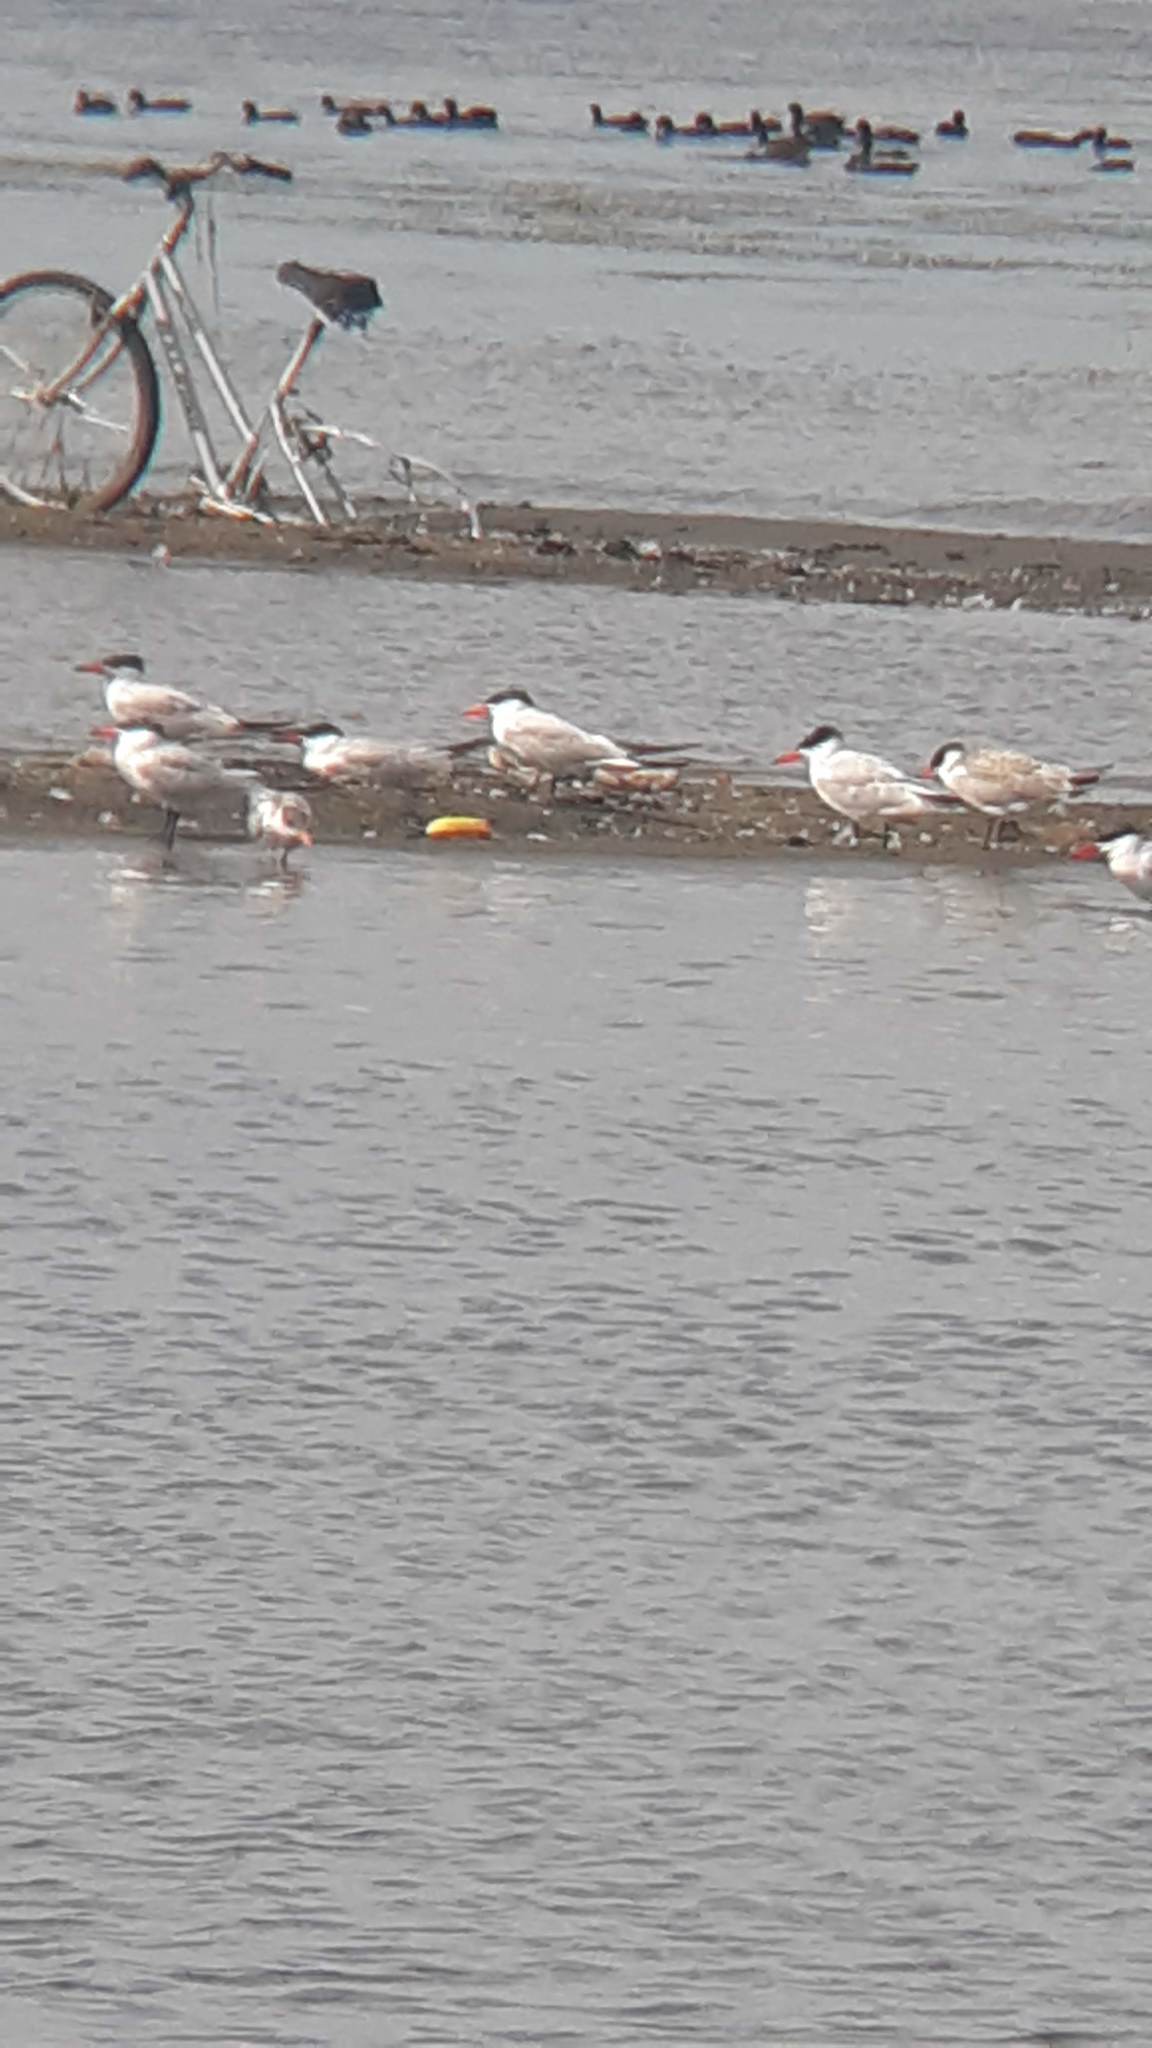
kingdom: Animalia
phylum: Chordata
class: Aves
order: Charadriiformes
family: Laridae
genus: Hydroprogne
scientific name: Hydroprogne caspia
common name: Caspian tern
